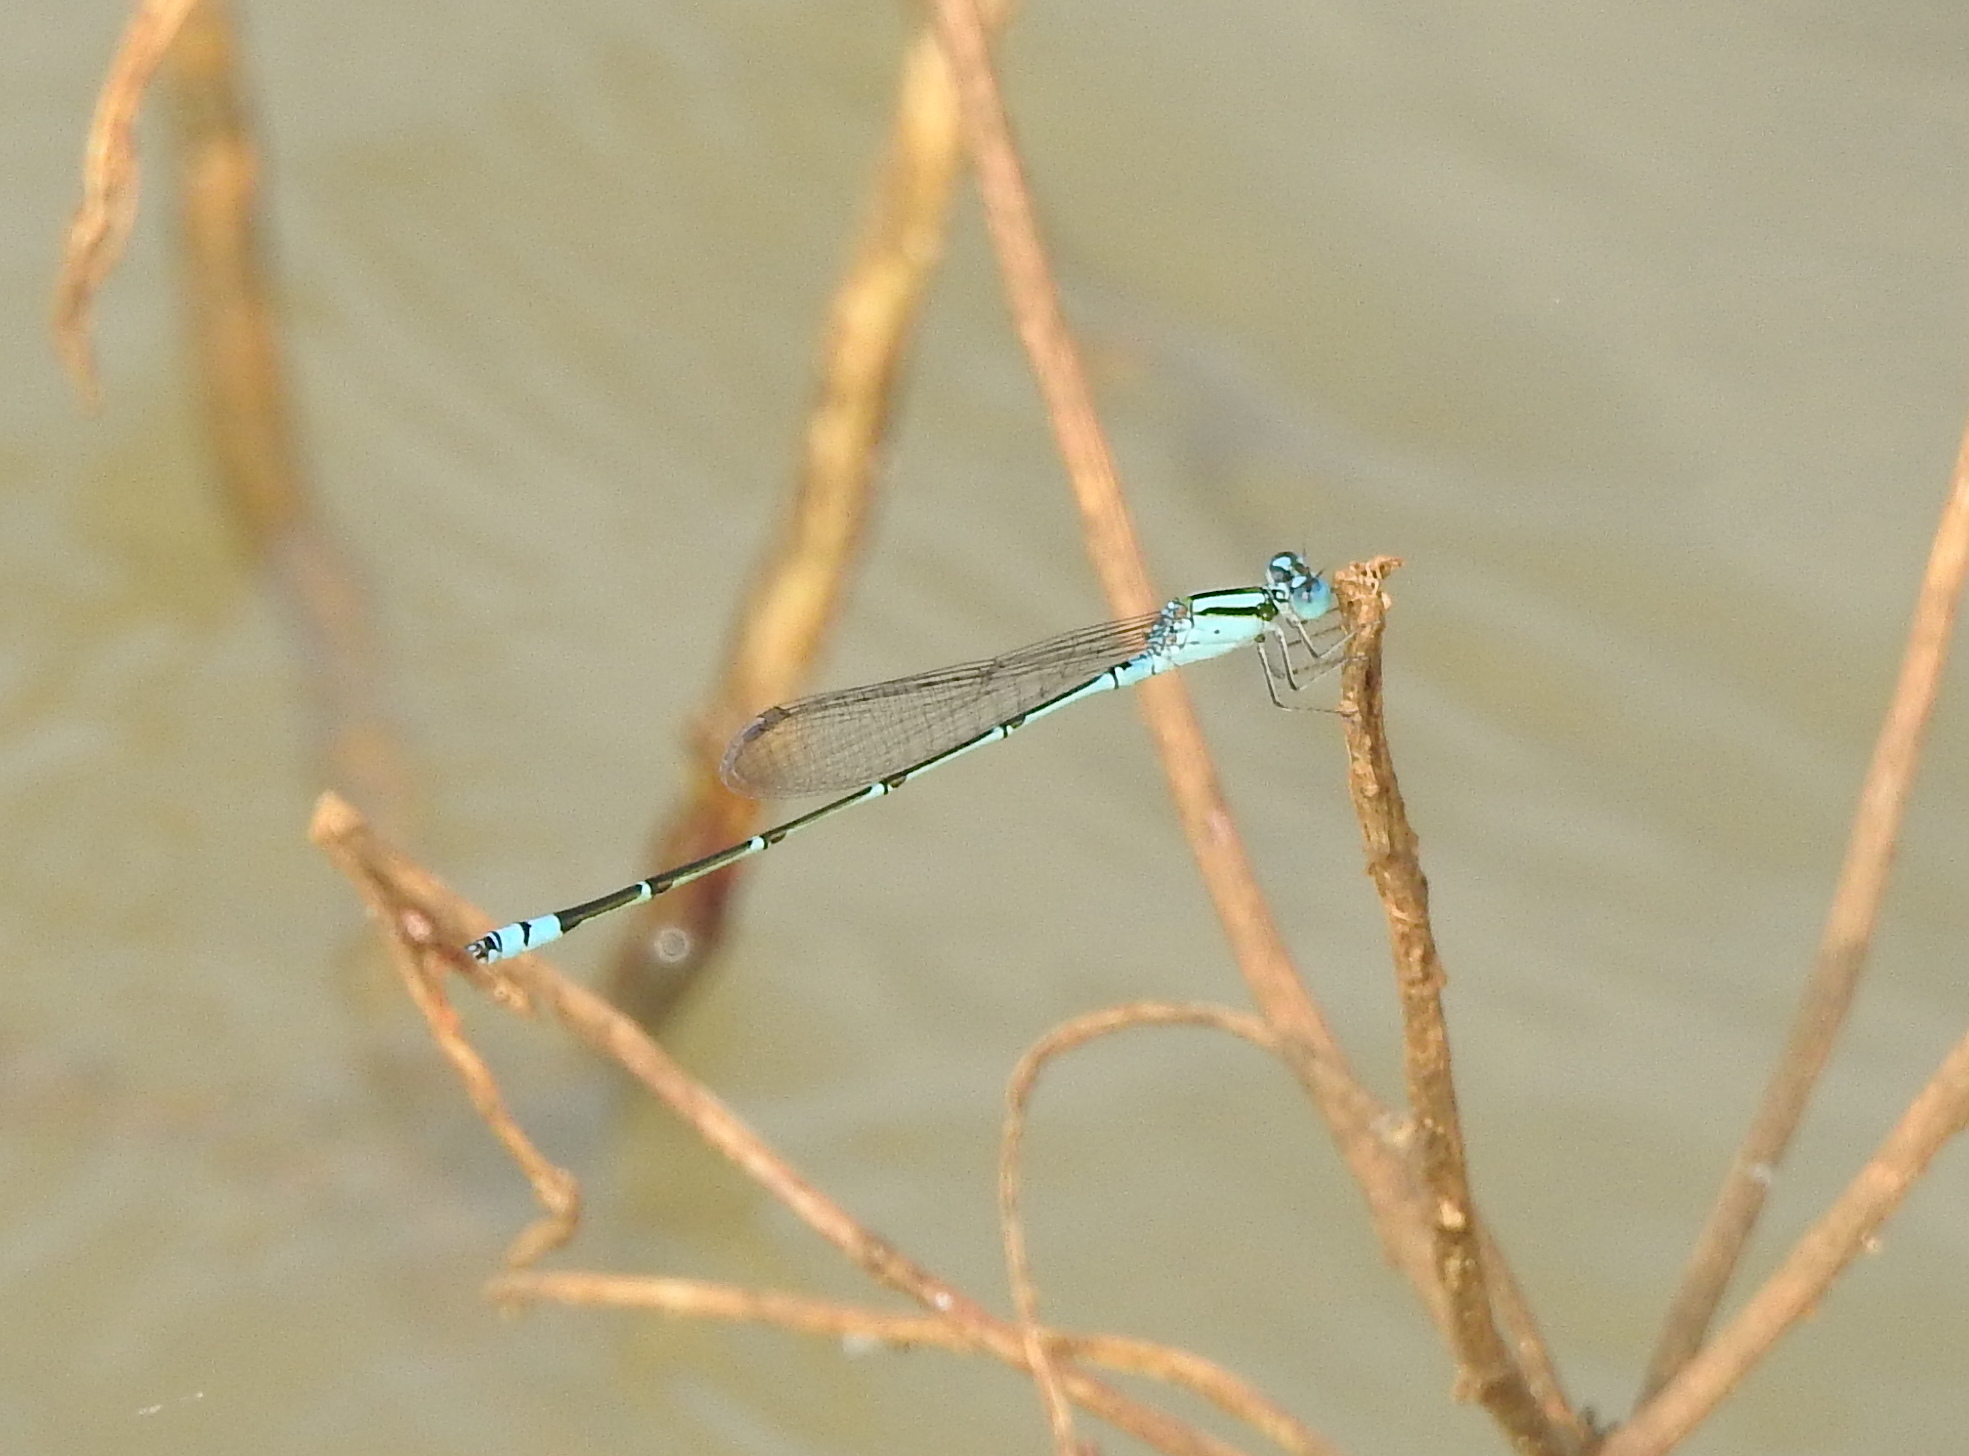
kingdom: Animalia
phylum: Arthropoda
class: Insecta
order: Odonata
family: Coenagrionidae
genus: Pseudagrion
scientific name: Pseudagrion microcephalum
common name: Blue riverdamsel
